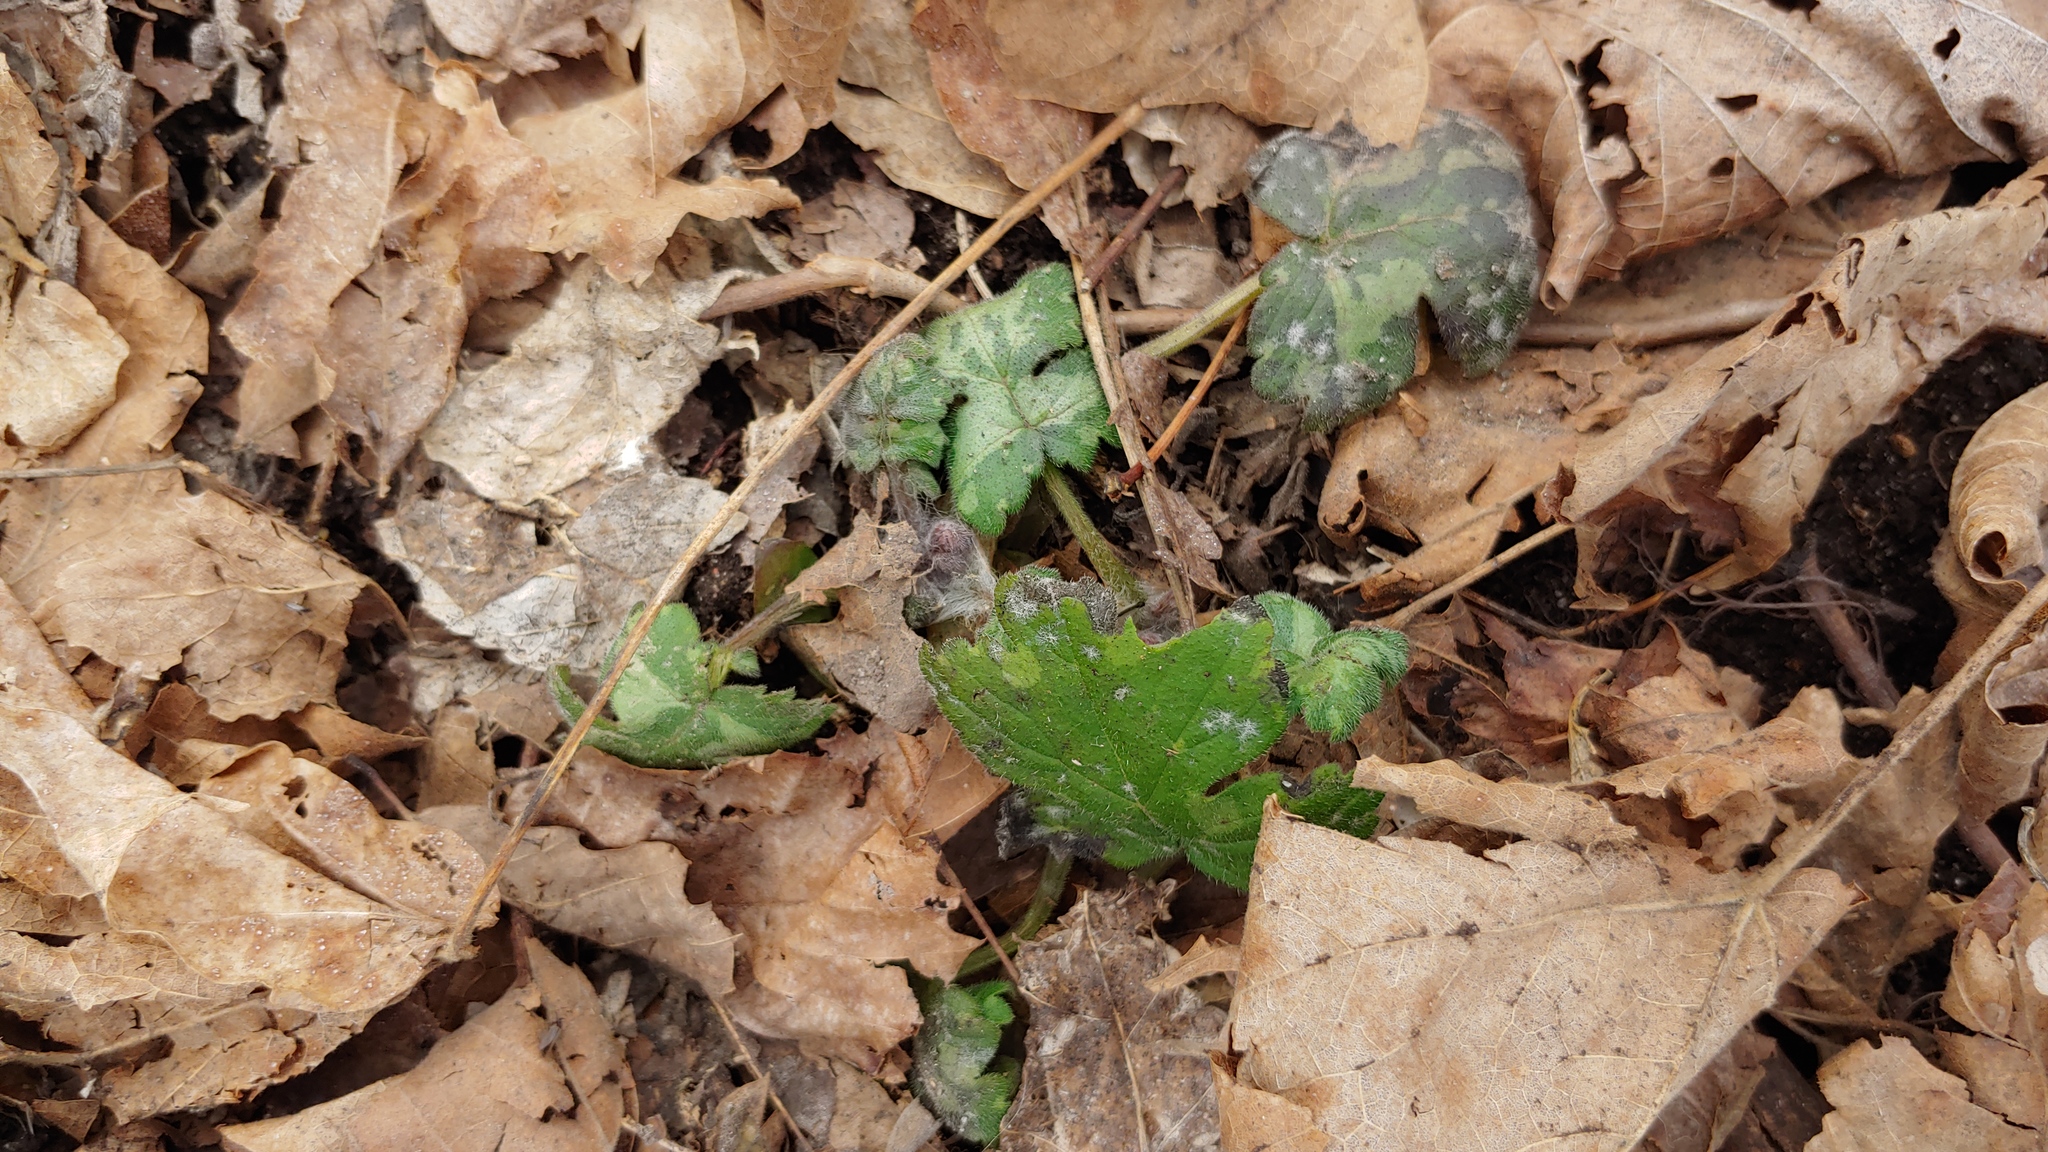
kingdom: Plantae
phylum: Tracheophyta
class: Magnoliopsida
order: Boraginales
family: Hydrophyllaceae
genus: Hydrophyllum
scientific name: Hydrophyllum appendiculatum
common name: Appendaged waterleaf
